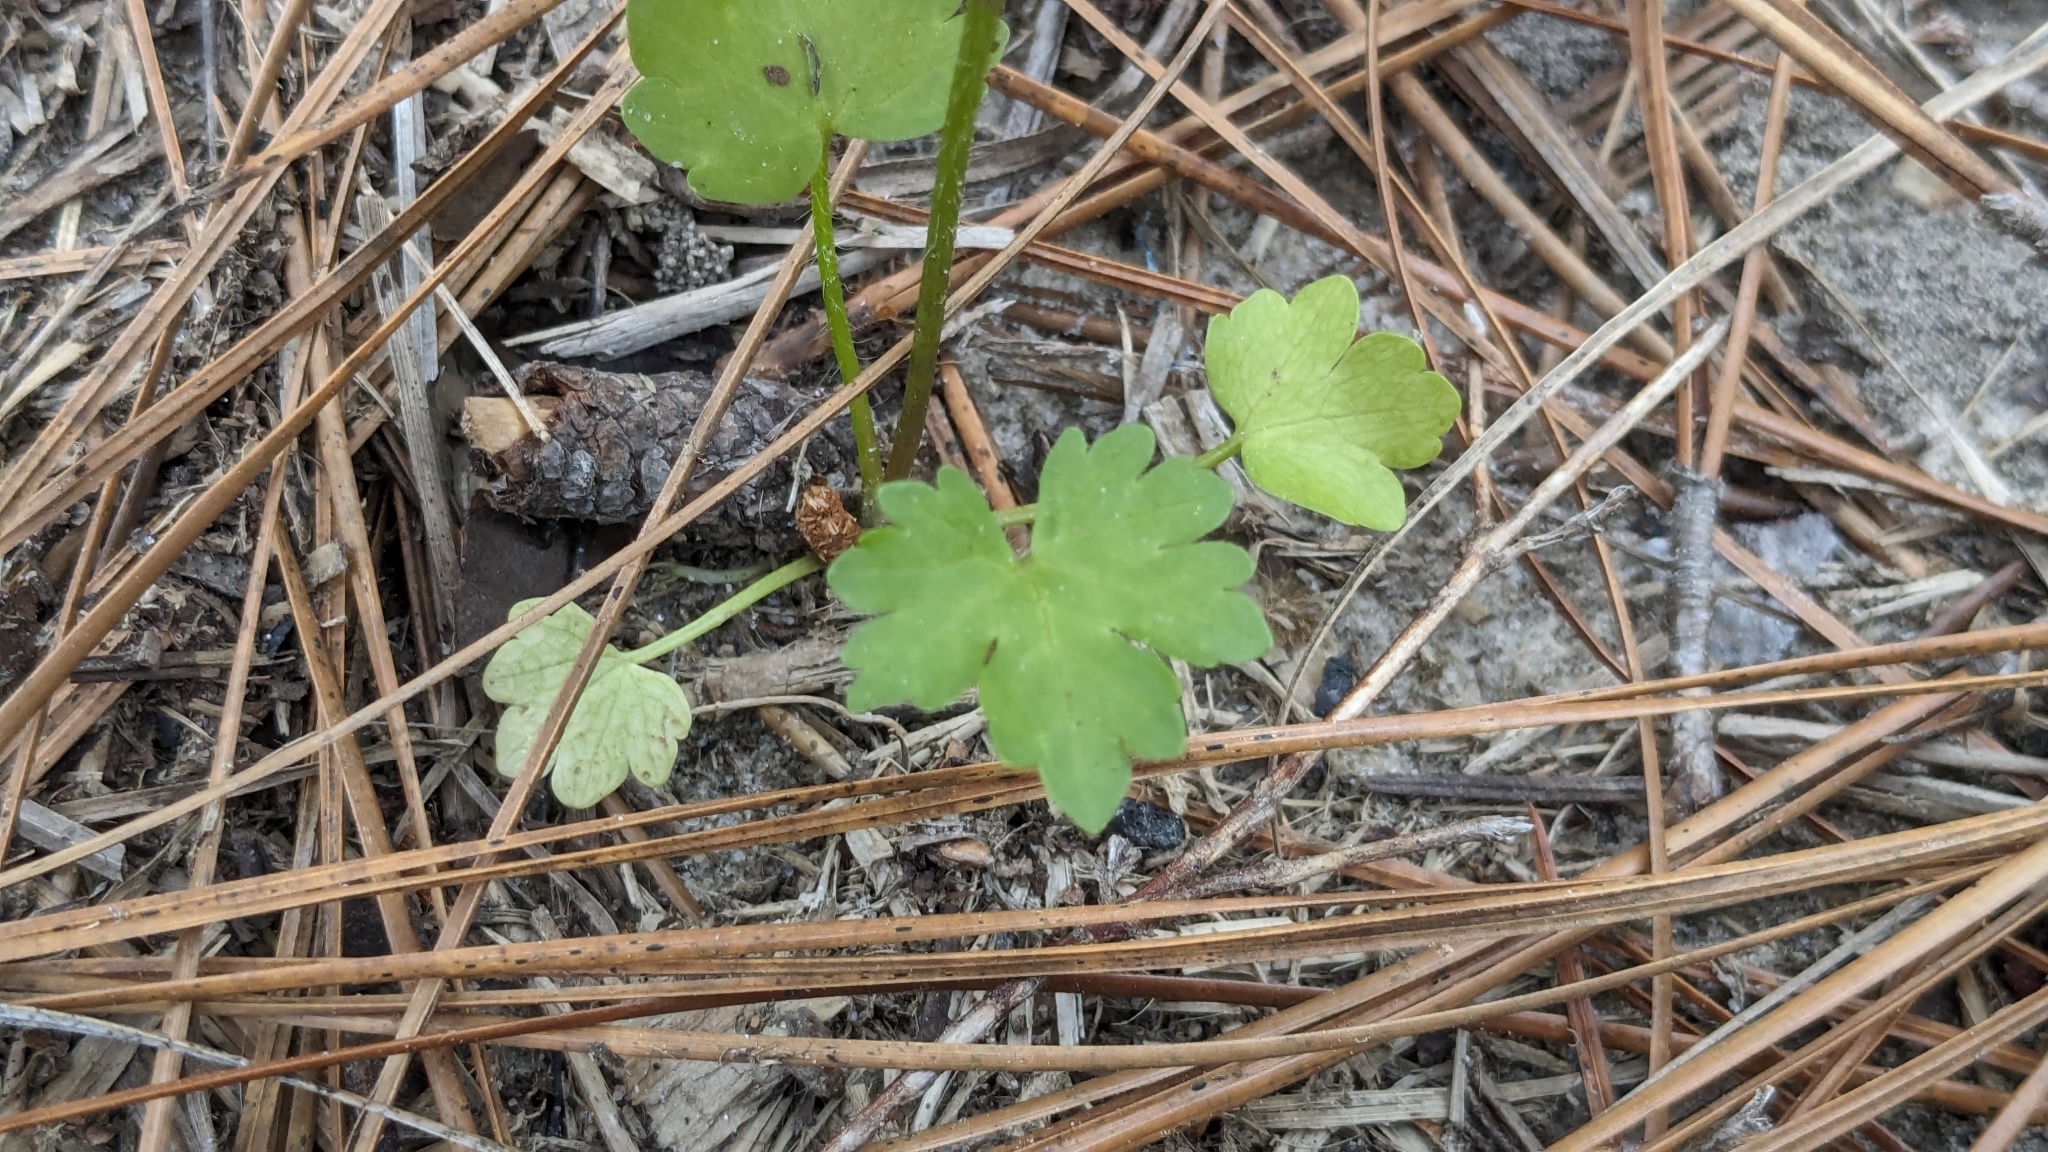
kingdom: Plantae
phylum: Tracheophyta
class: Magnoliopsida
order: Ranunculales
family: Ranunculaceae
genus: Ranunculus
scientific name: Ranunculus sardous
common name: Hairy buttercup
